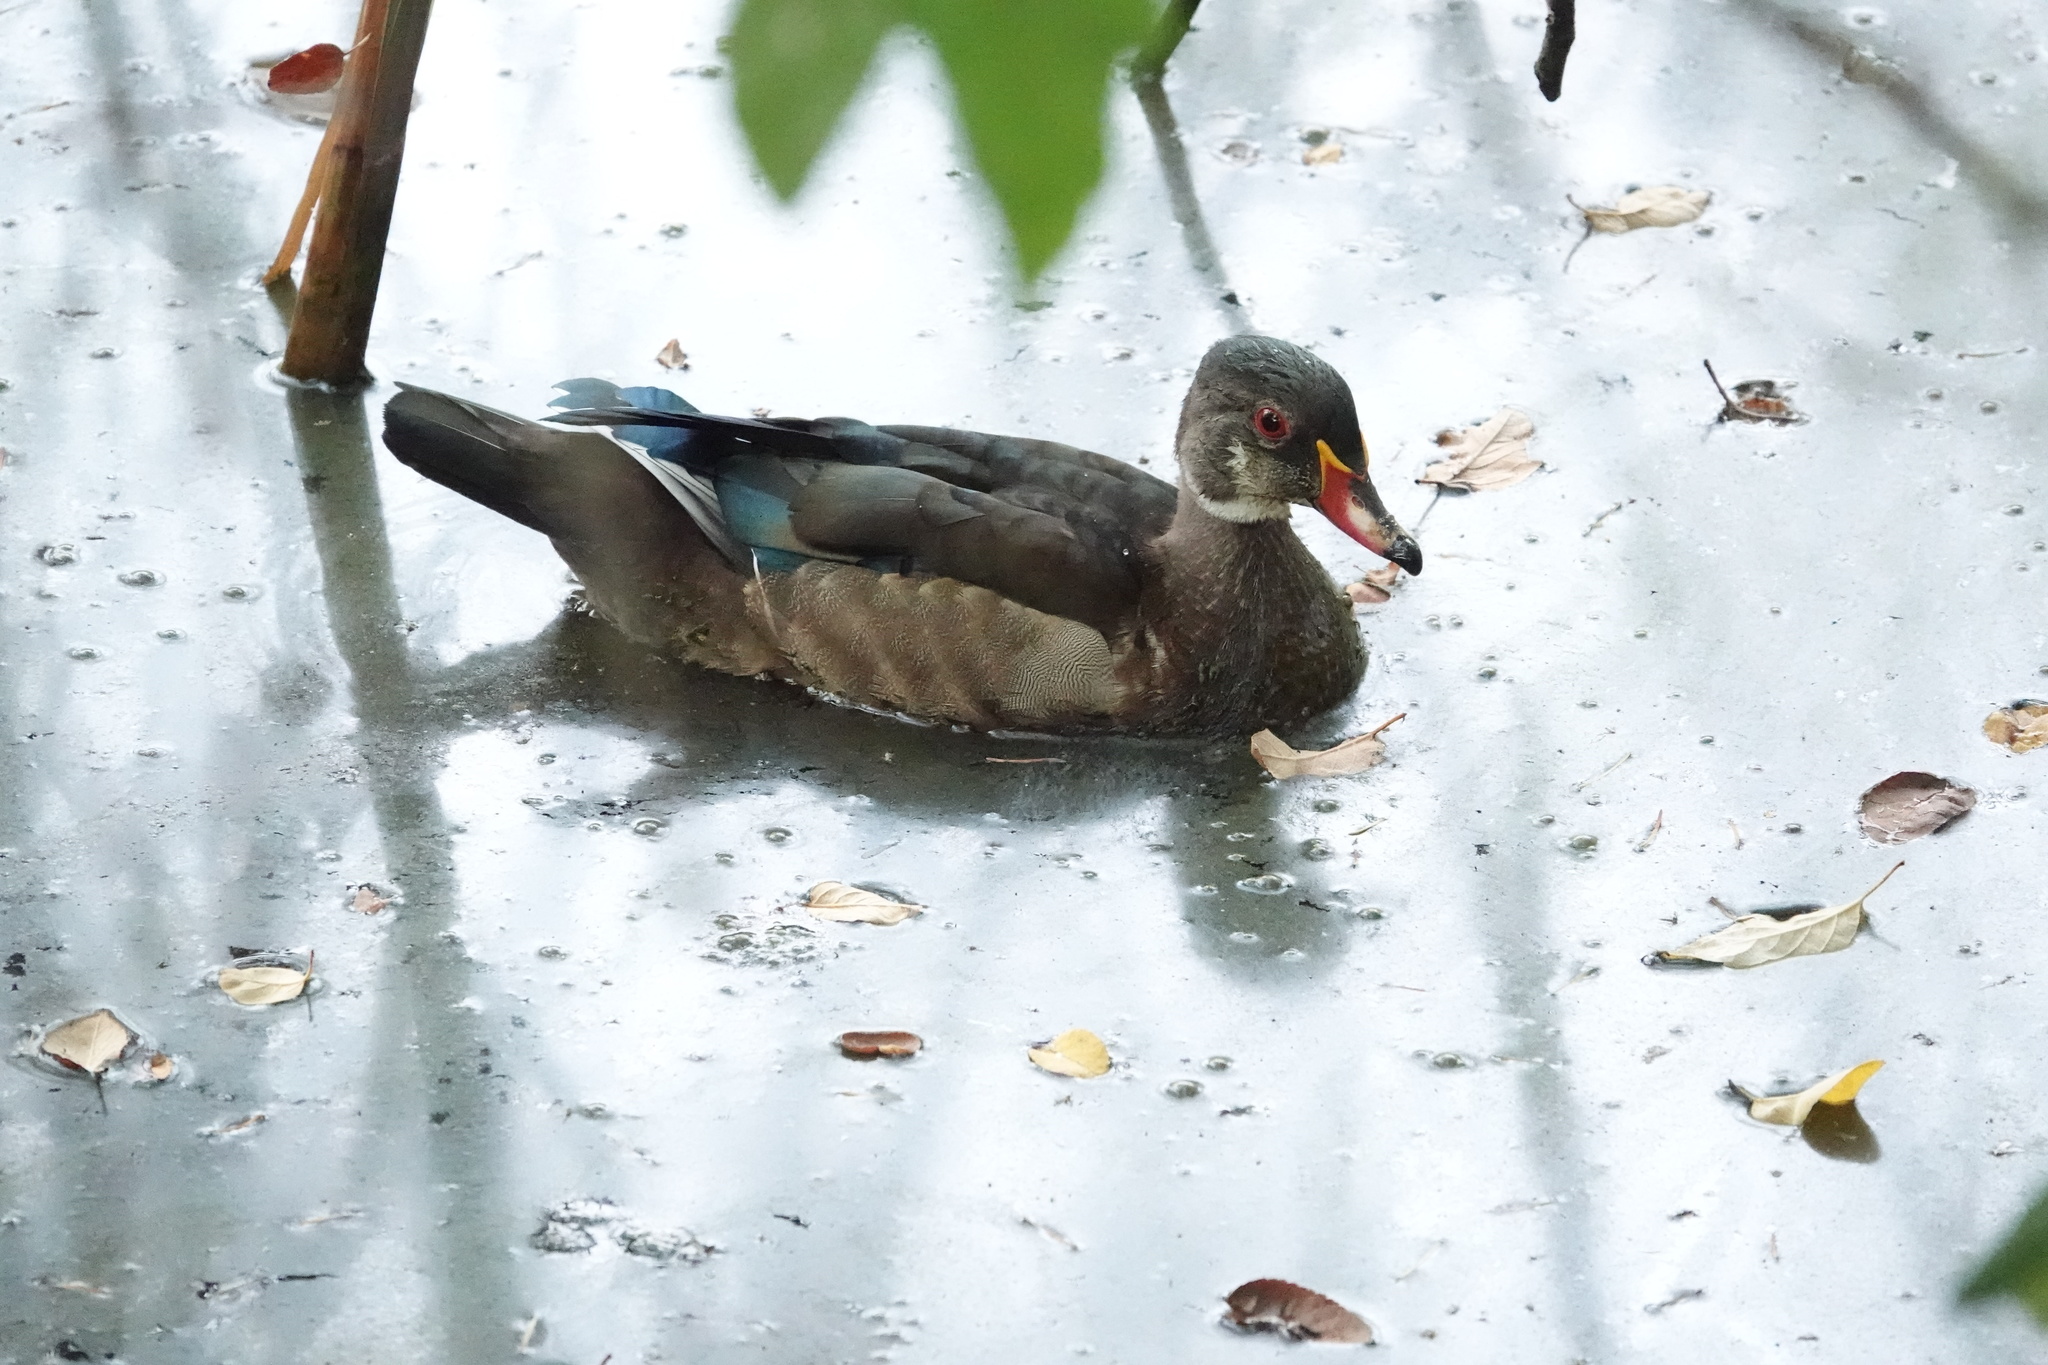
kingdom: Animalia
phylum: Chordata
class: Aves
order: Anseriformes
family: Anatidae
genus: Aix
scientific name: Aix sponsa
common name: Wood duck
